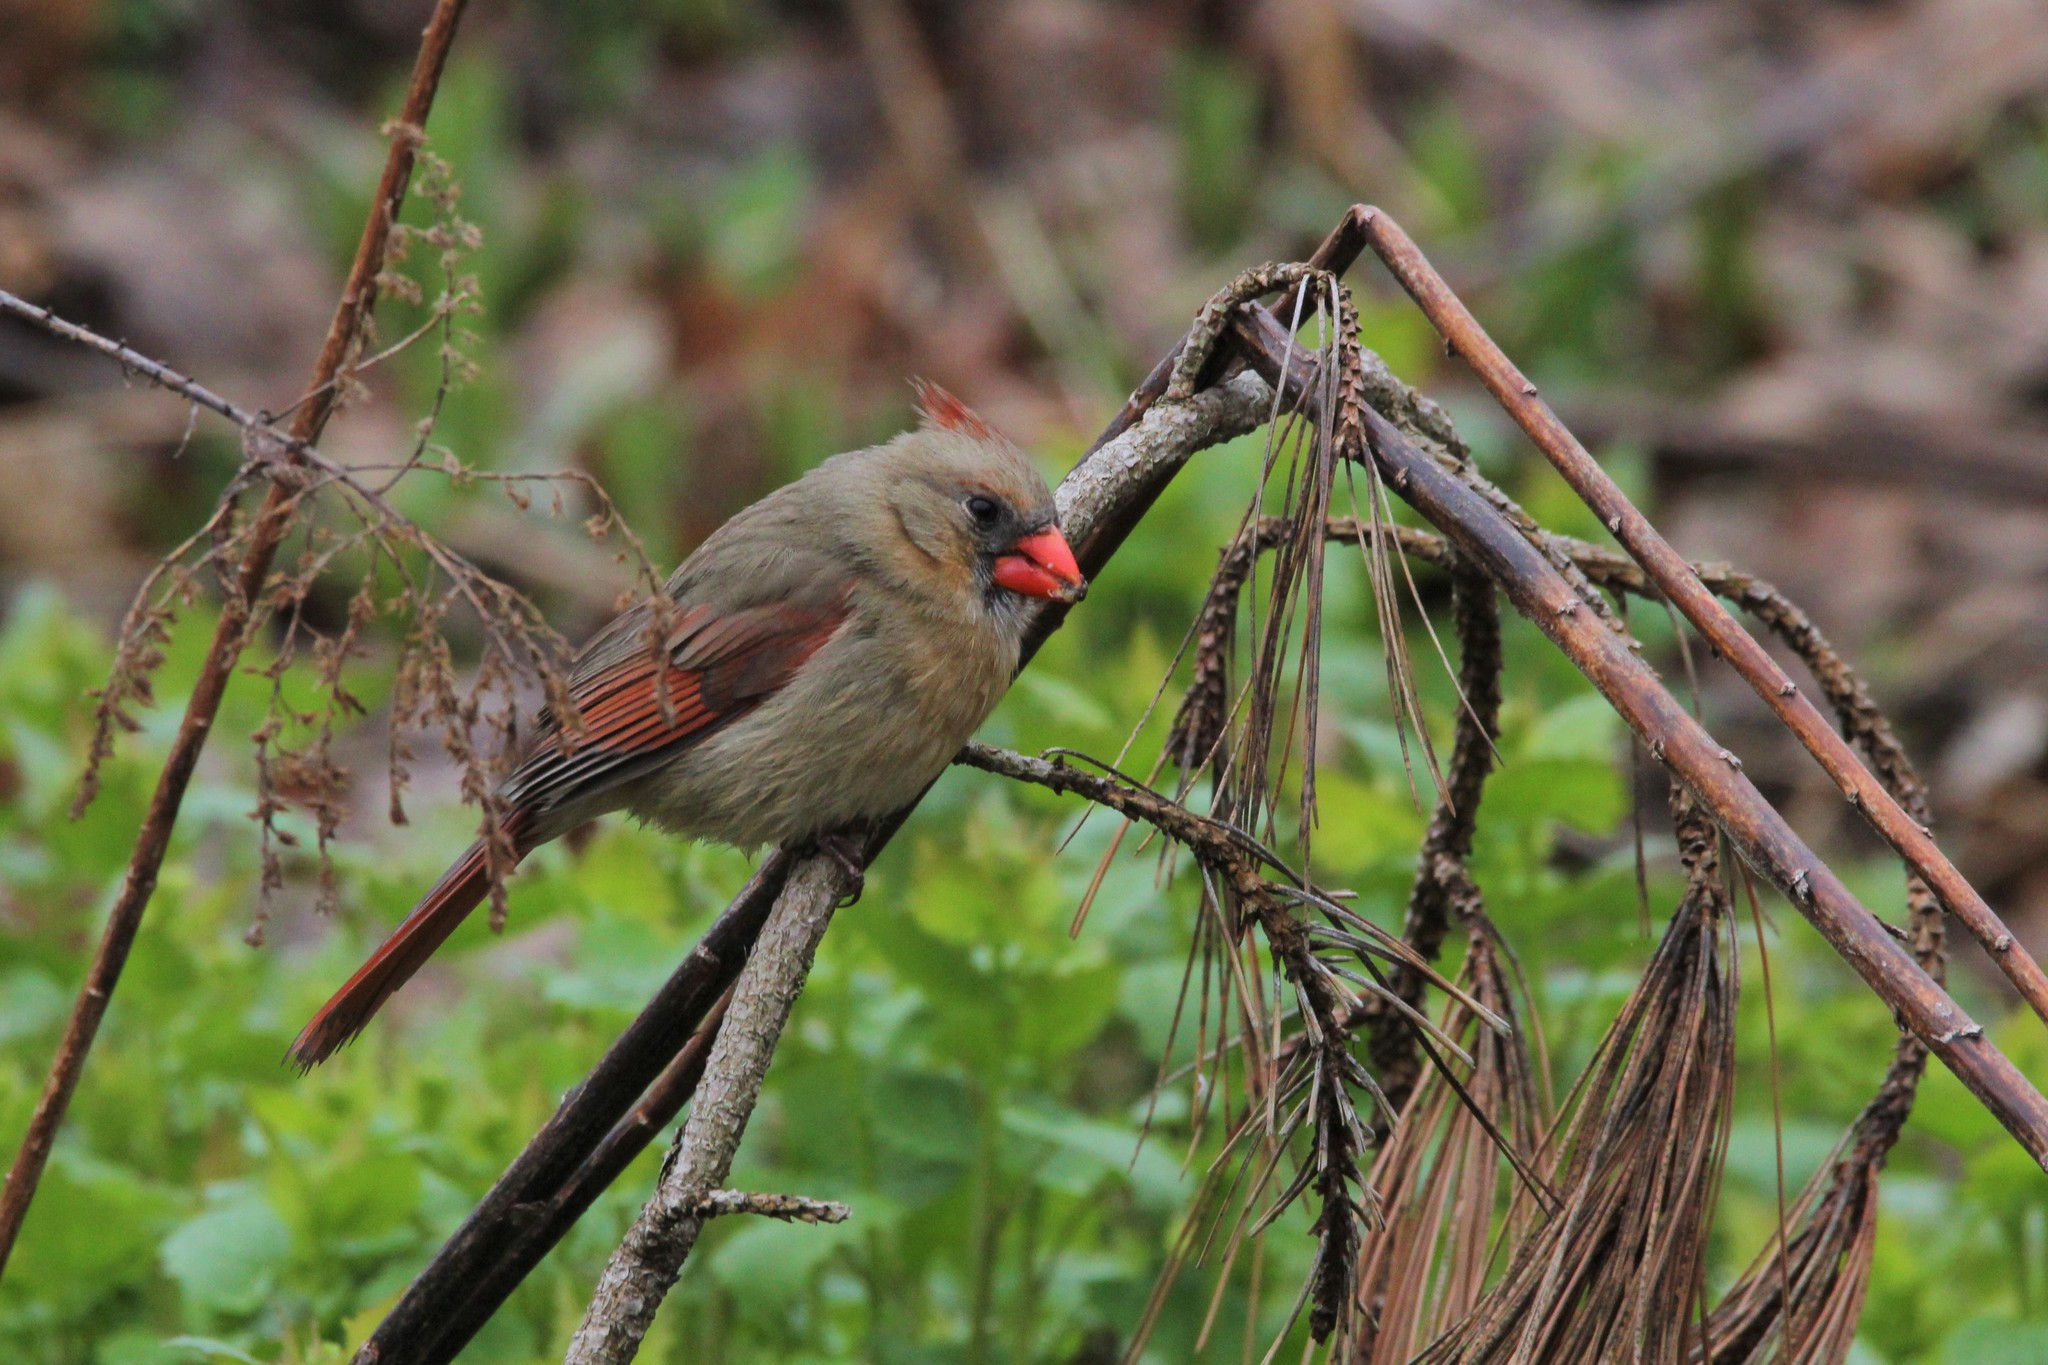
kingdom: Animalia
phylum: Chordata
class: Aves
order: Passeriformes
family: Cardinalidae
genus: Cardinalis
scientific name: Cardinalis cardinalis
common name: Northern cardinal
